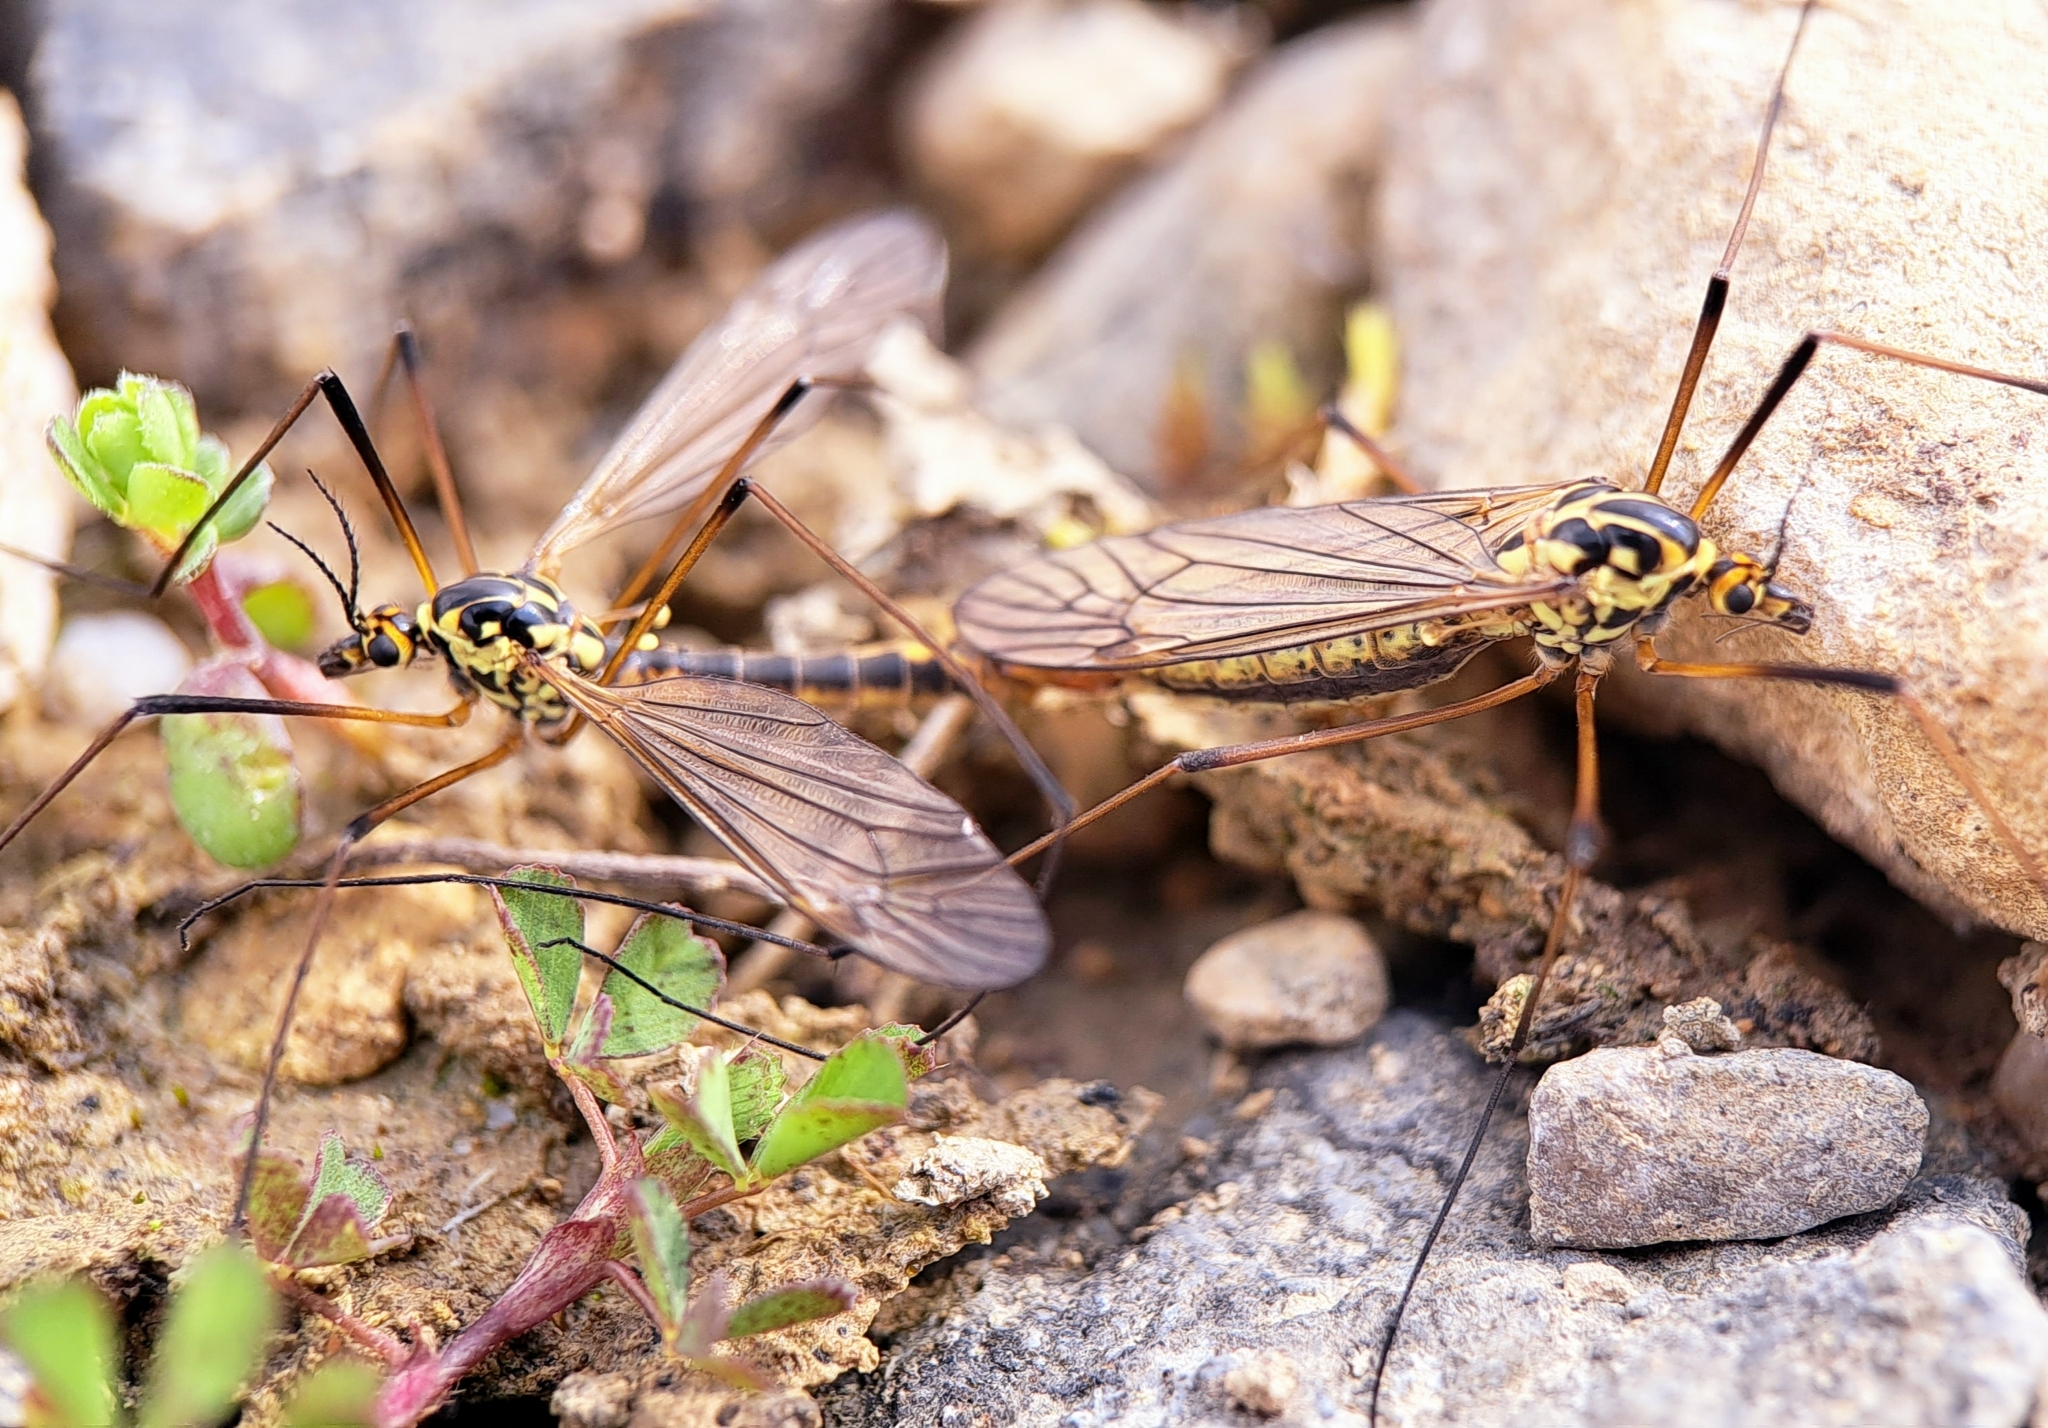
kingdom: Animalia
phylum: Arthropoda
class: Insecta
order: Diptera
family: Tipulidae
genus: Nephrotoma
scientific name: Nephrotoma appendiculata
